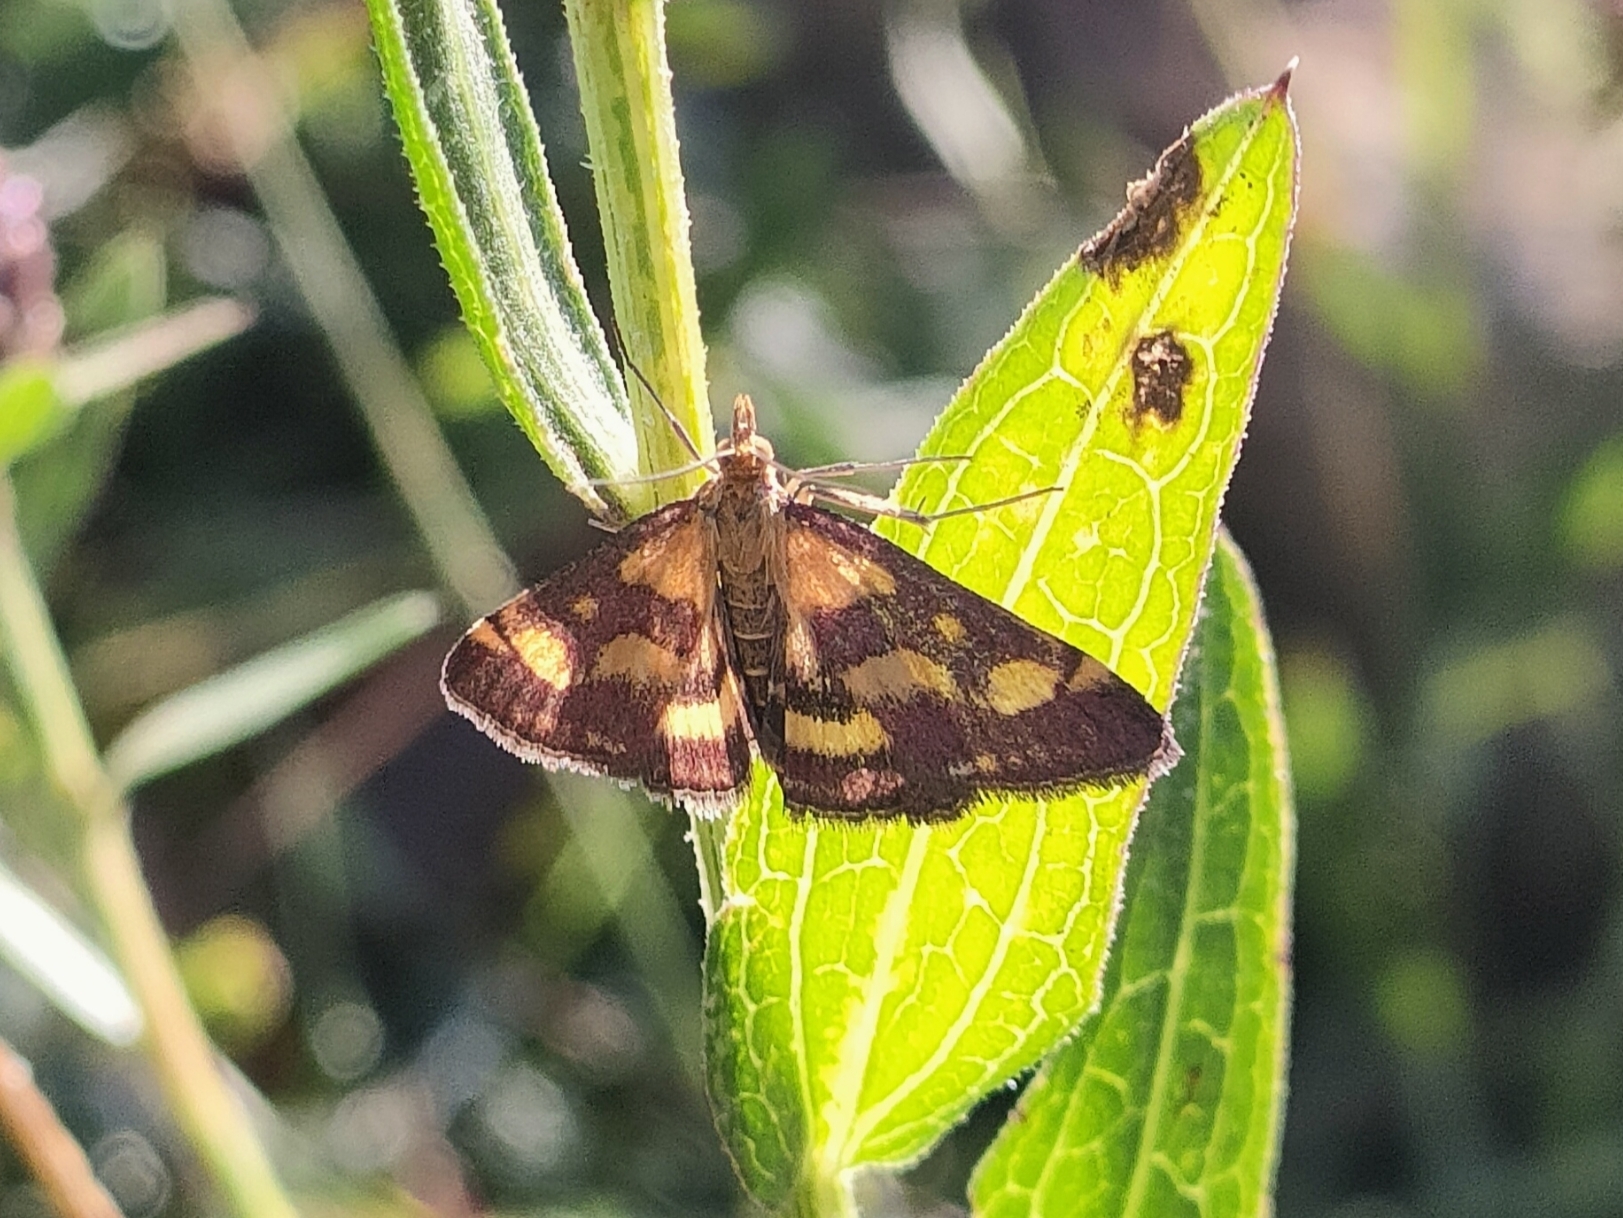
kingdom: Animalia
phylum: Arthropoda
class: Insecta
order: Lepidoptera
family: Crambidae
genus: Pyrausta
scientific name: Pyrausta purpuralis
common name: Common purple & gold
